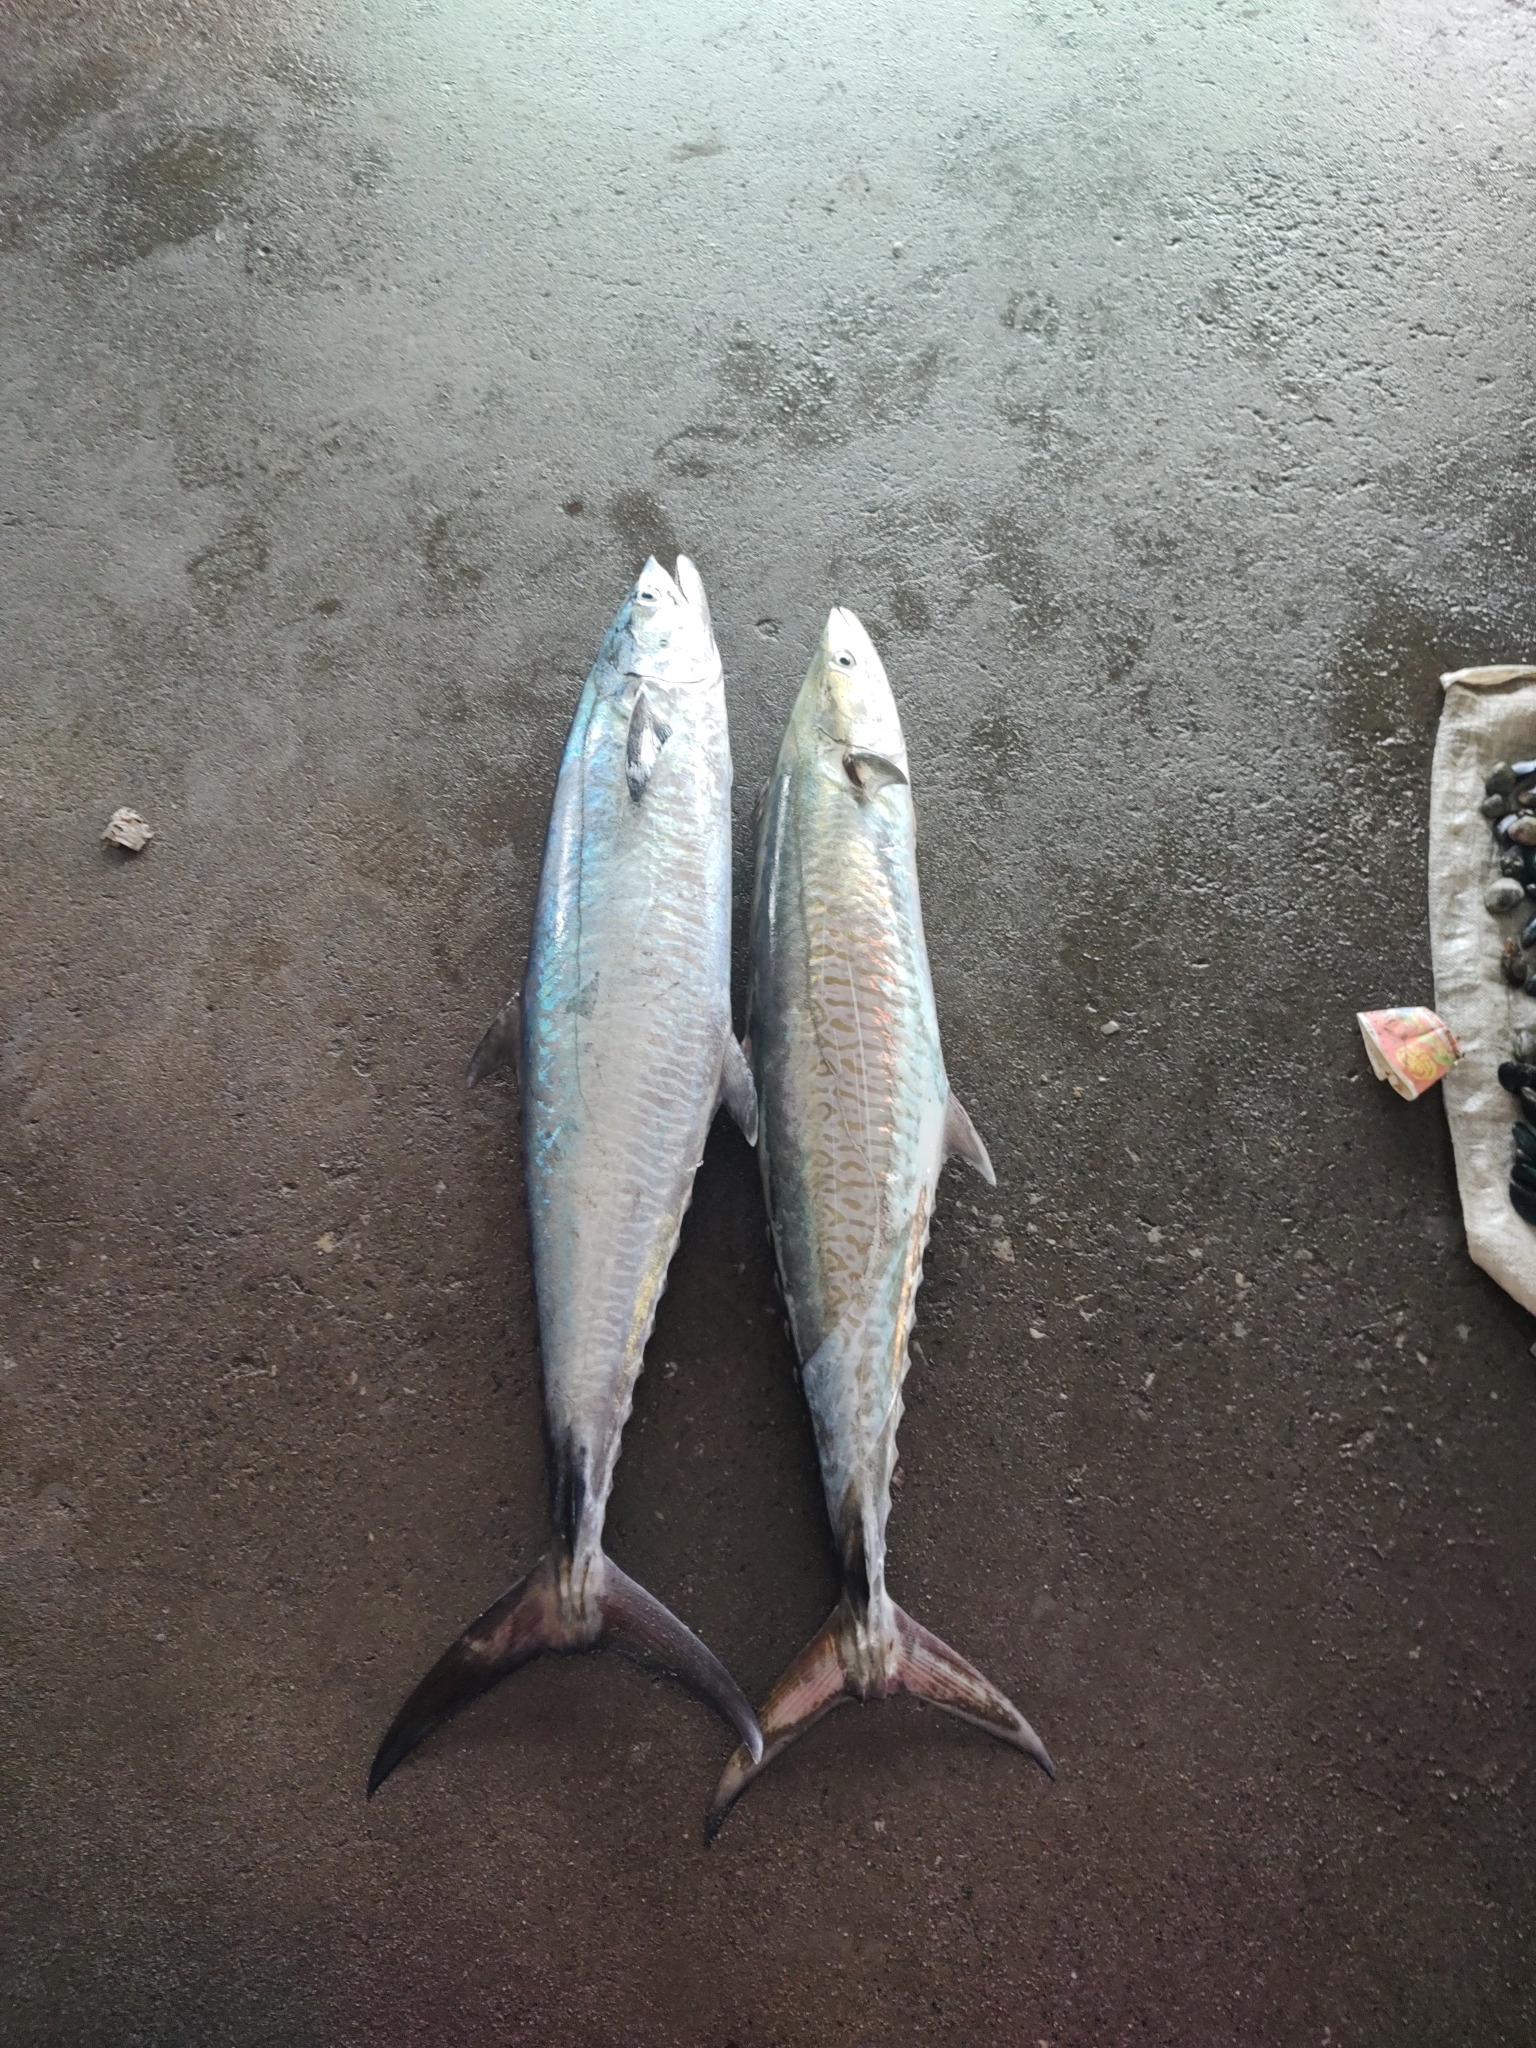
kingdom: Animalia
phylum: Chordata
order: Perciformes
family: Scombridae
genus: Scomberomorus
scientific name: Scomberomorus commerson
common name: Narrow-barred spanish mackerel
